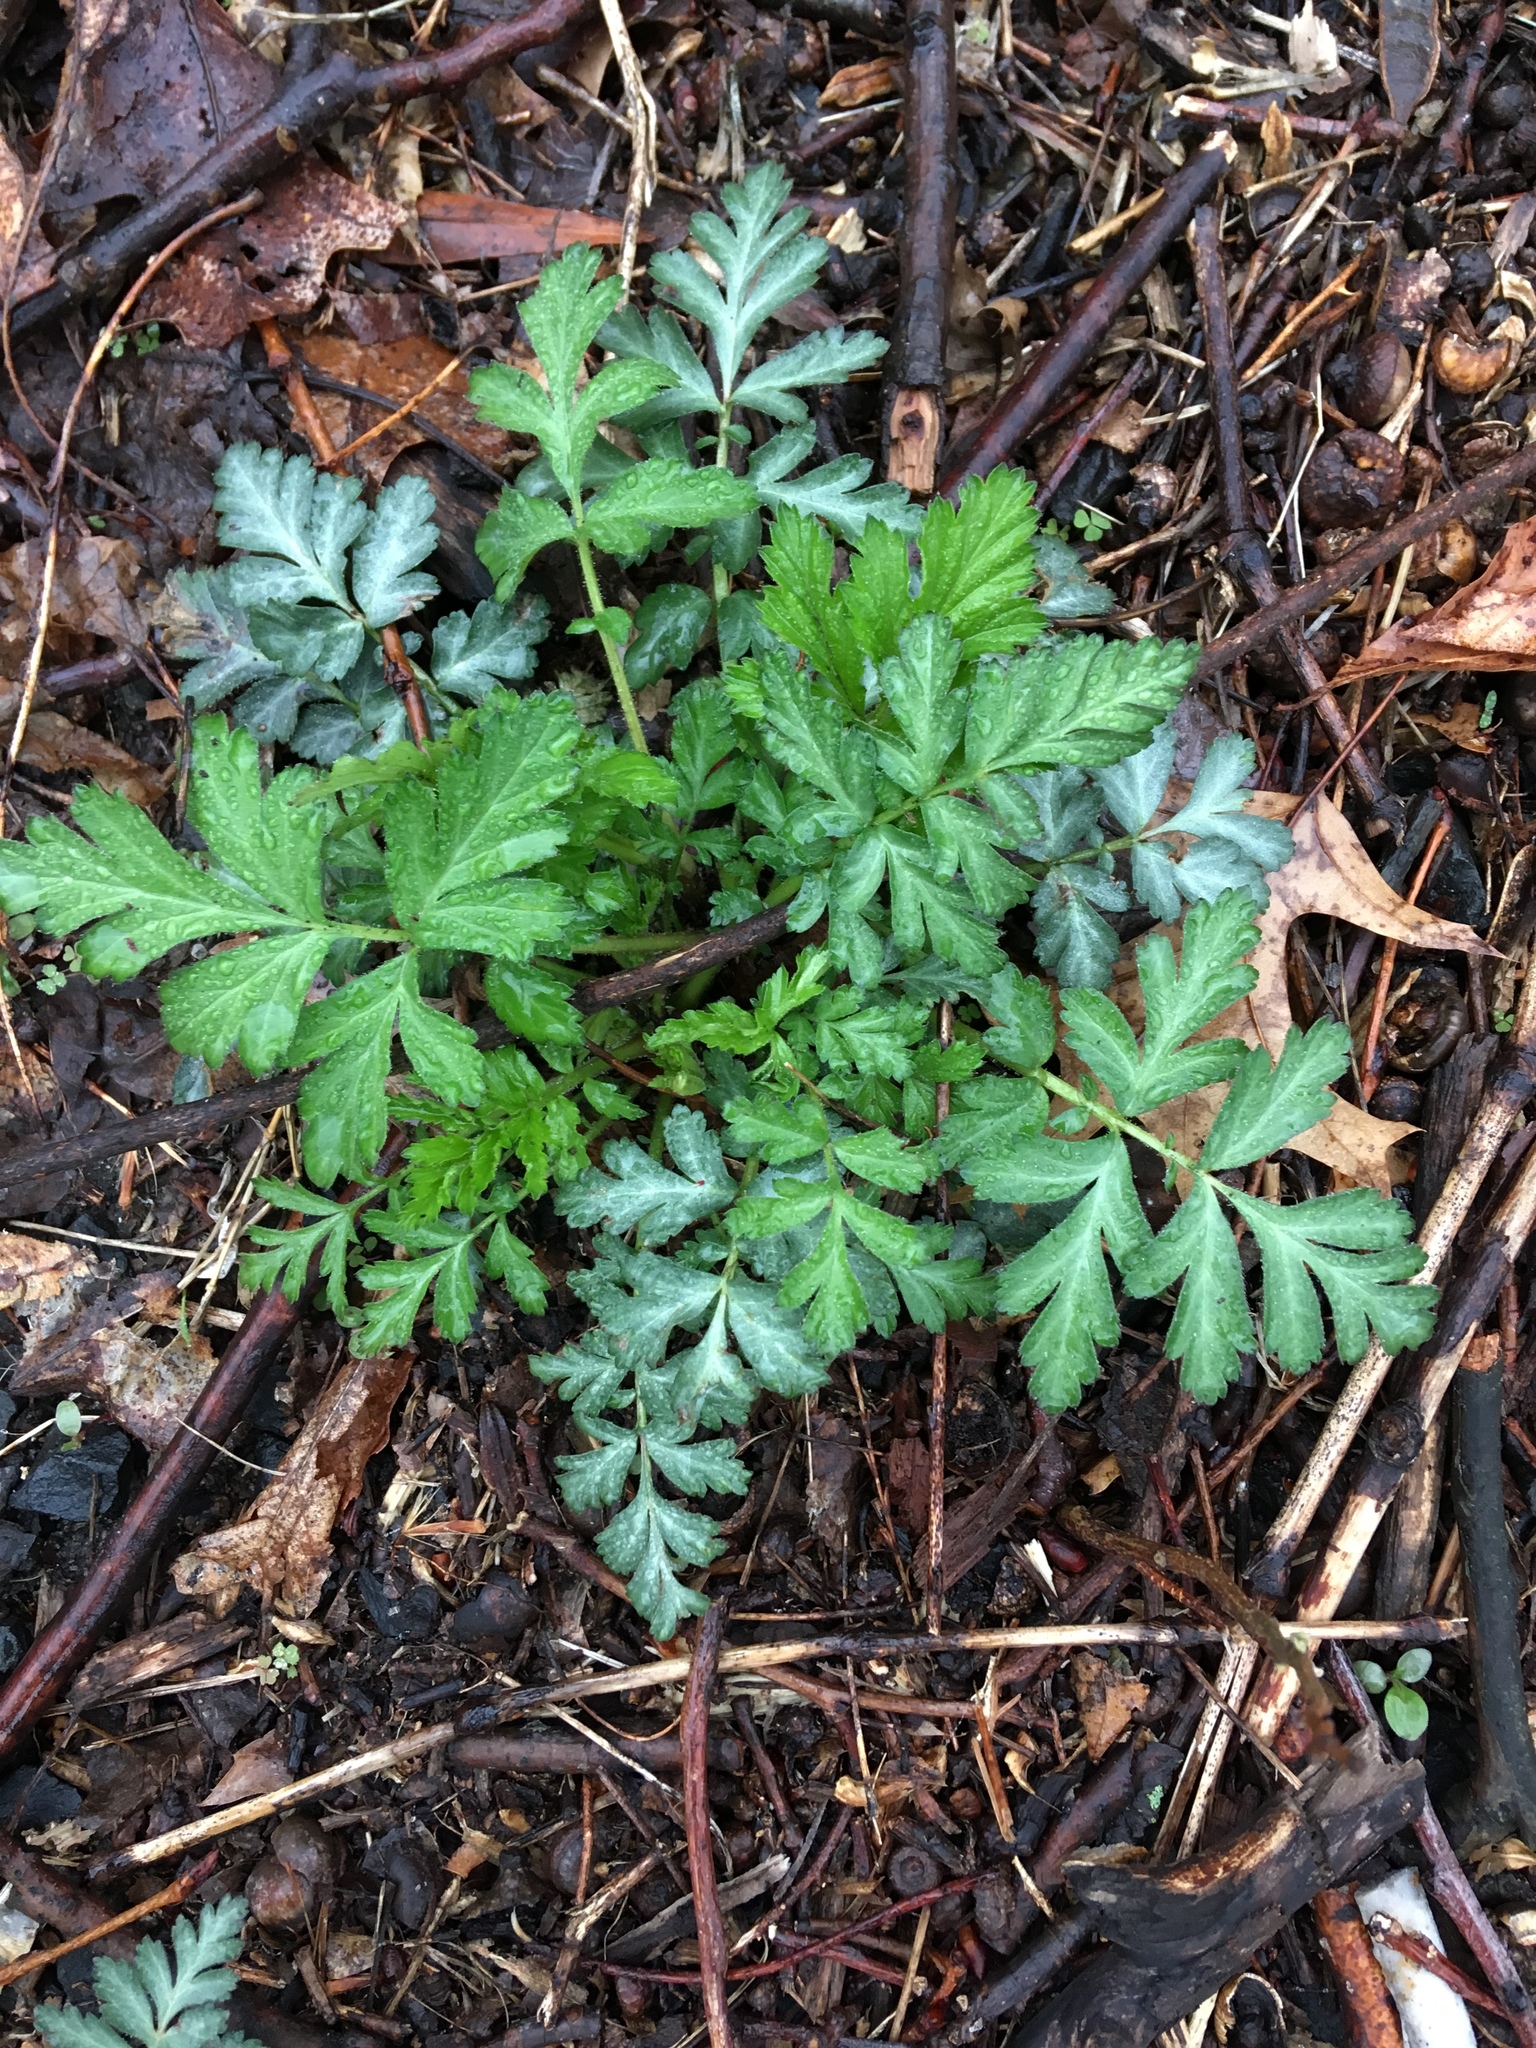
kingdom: Plantae
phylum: Tracheophyta
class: Magnoliopsida
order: Rosales
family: Rosaceae
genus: Geum
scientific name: Geum canadense
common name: White avens
